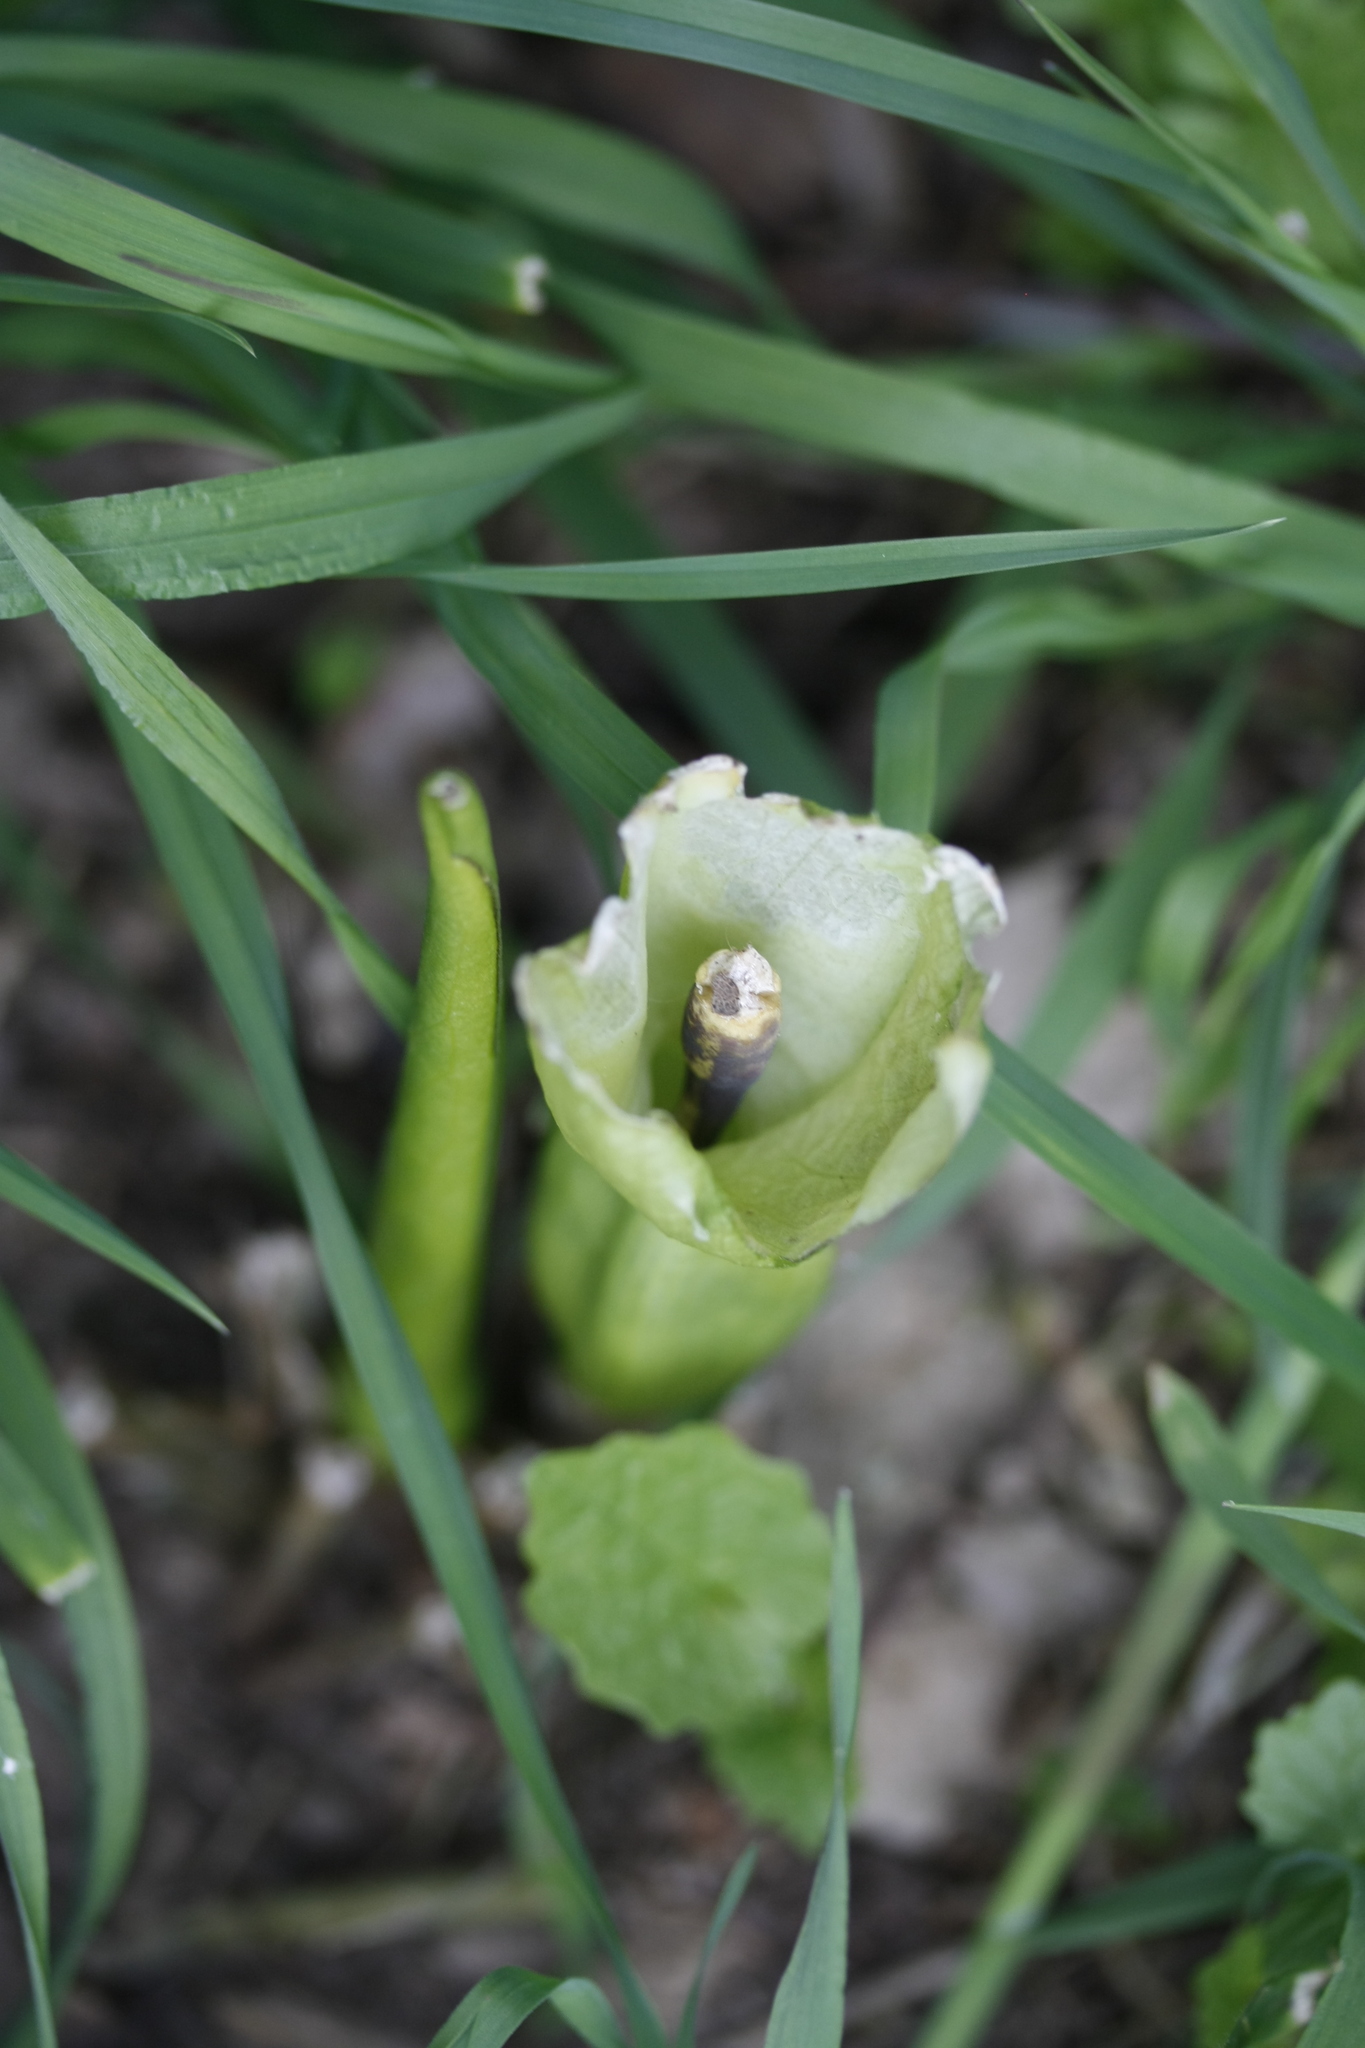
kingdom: Plantae
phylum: Tracheophyta
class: Liliopsida
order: Alismatales
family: Araceae
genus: Arum
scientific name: Arum maculatum
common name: Lords-and-ladies
